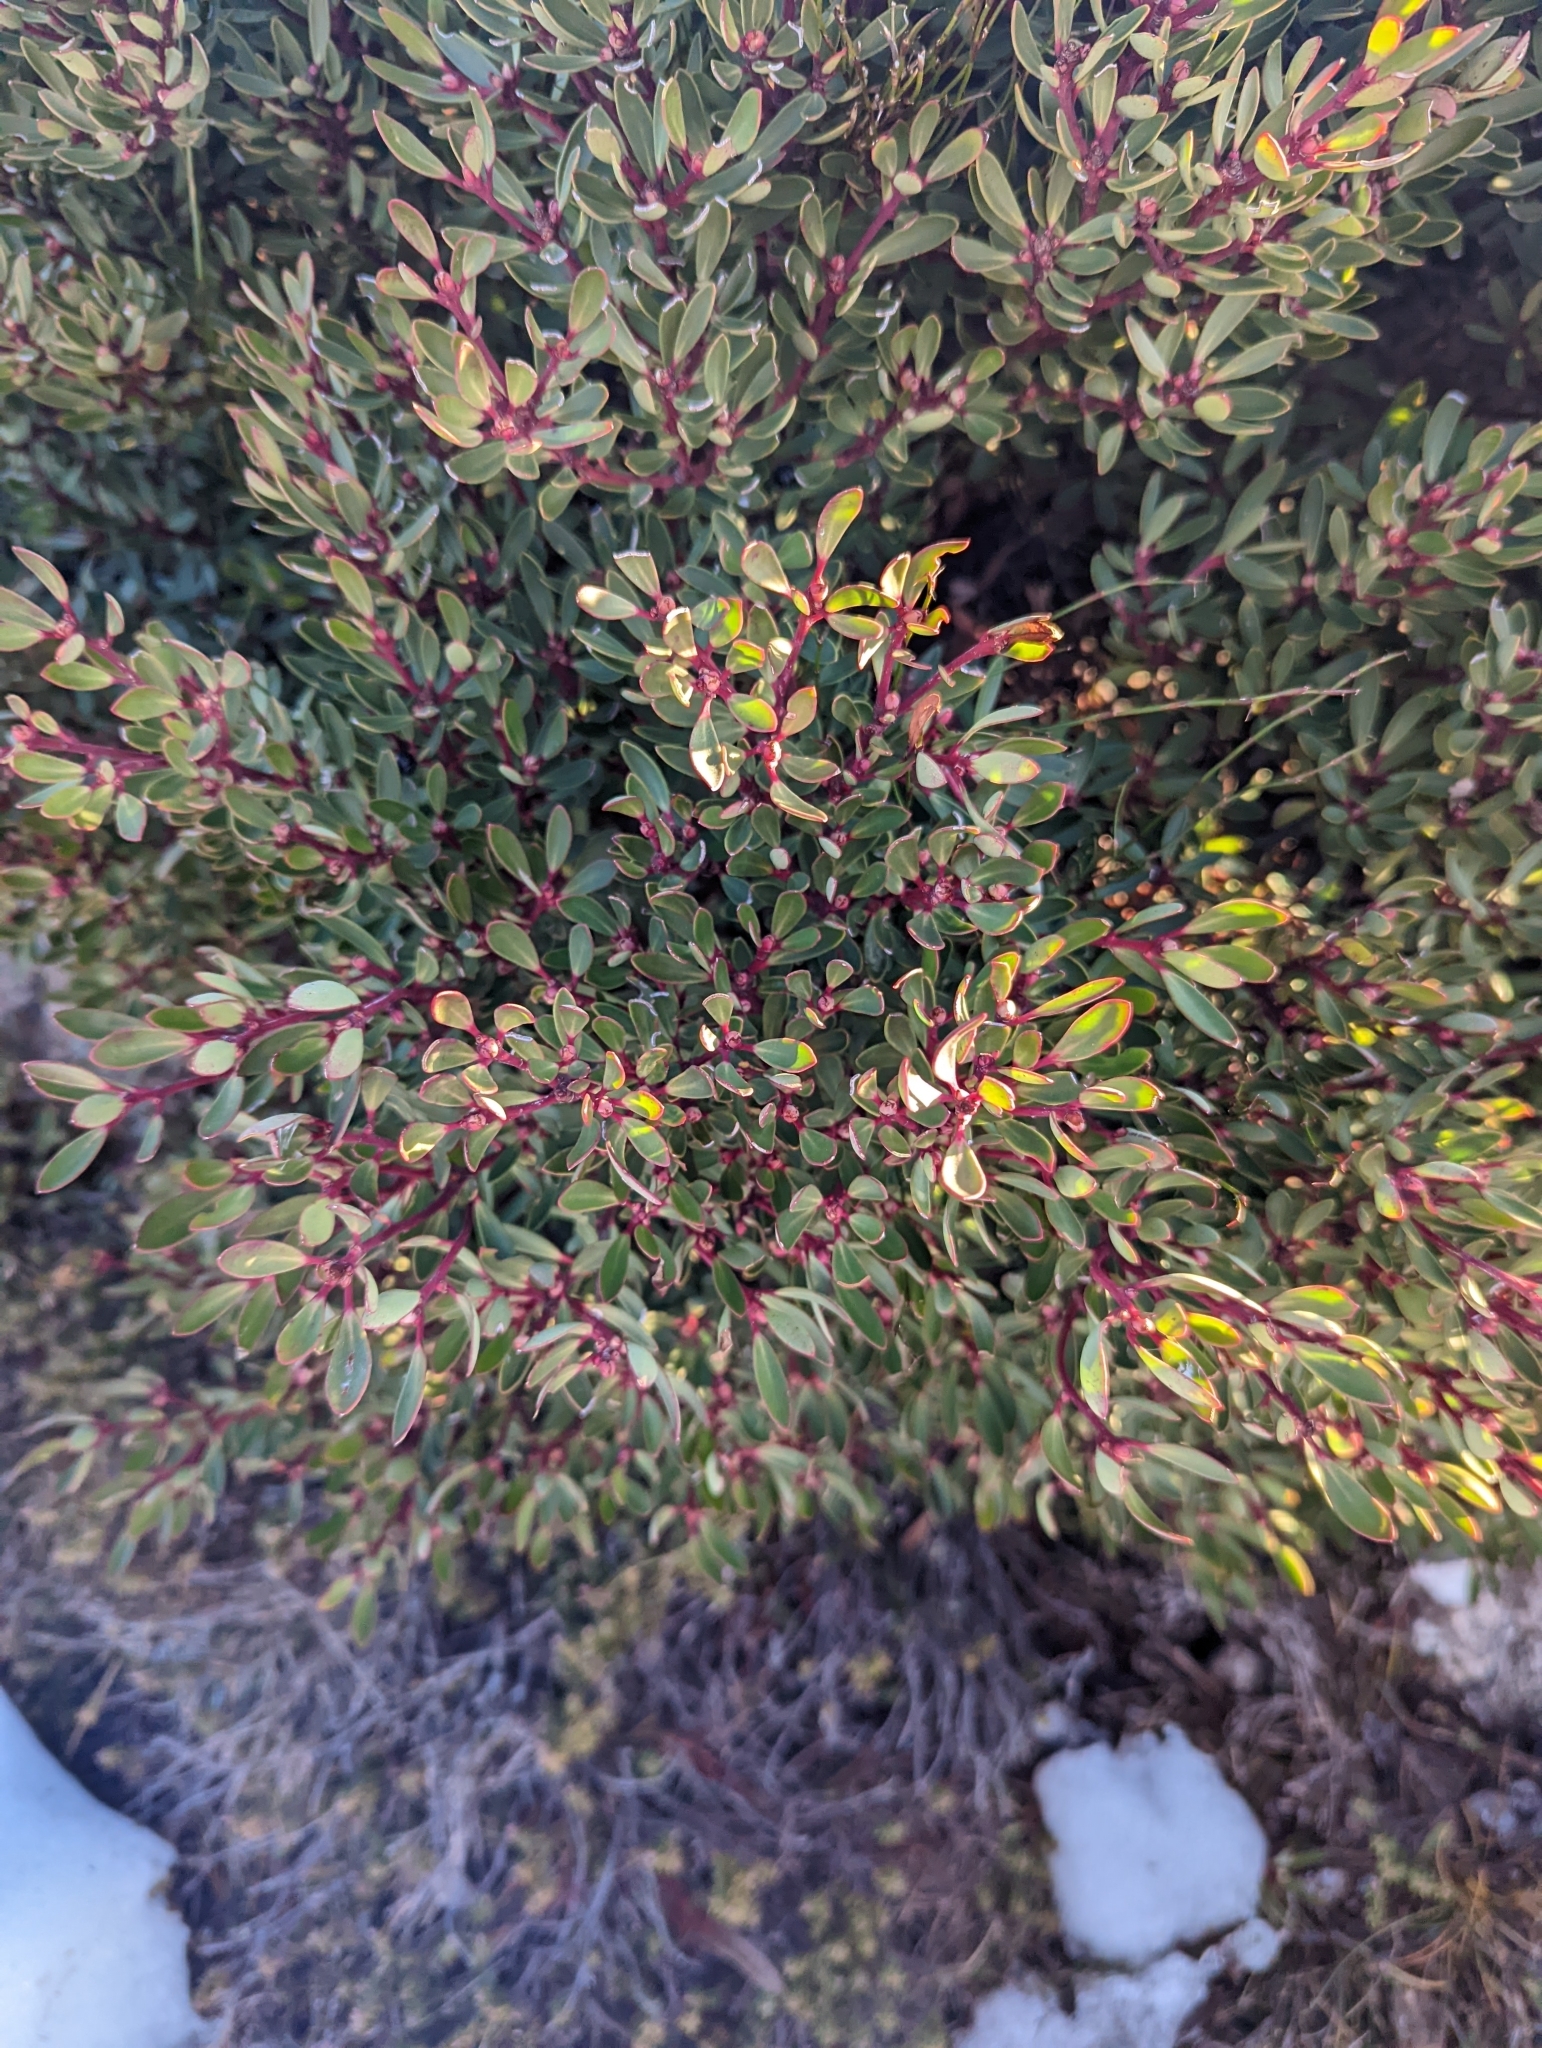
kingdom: Plantae
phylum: Tracheophyta
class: Magnoliopsida
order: Canellales
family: Winteraceae
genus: Drimys
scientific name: Drimys aromatica
